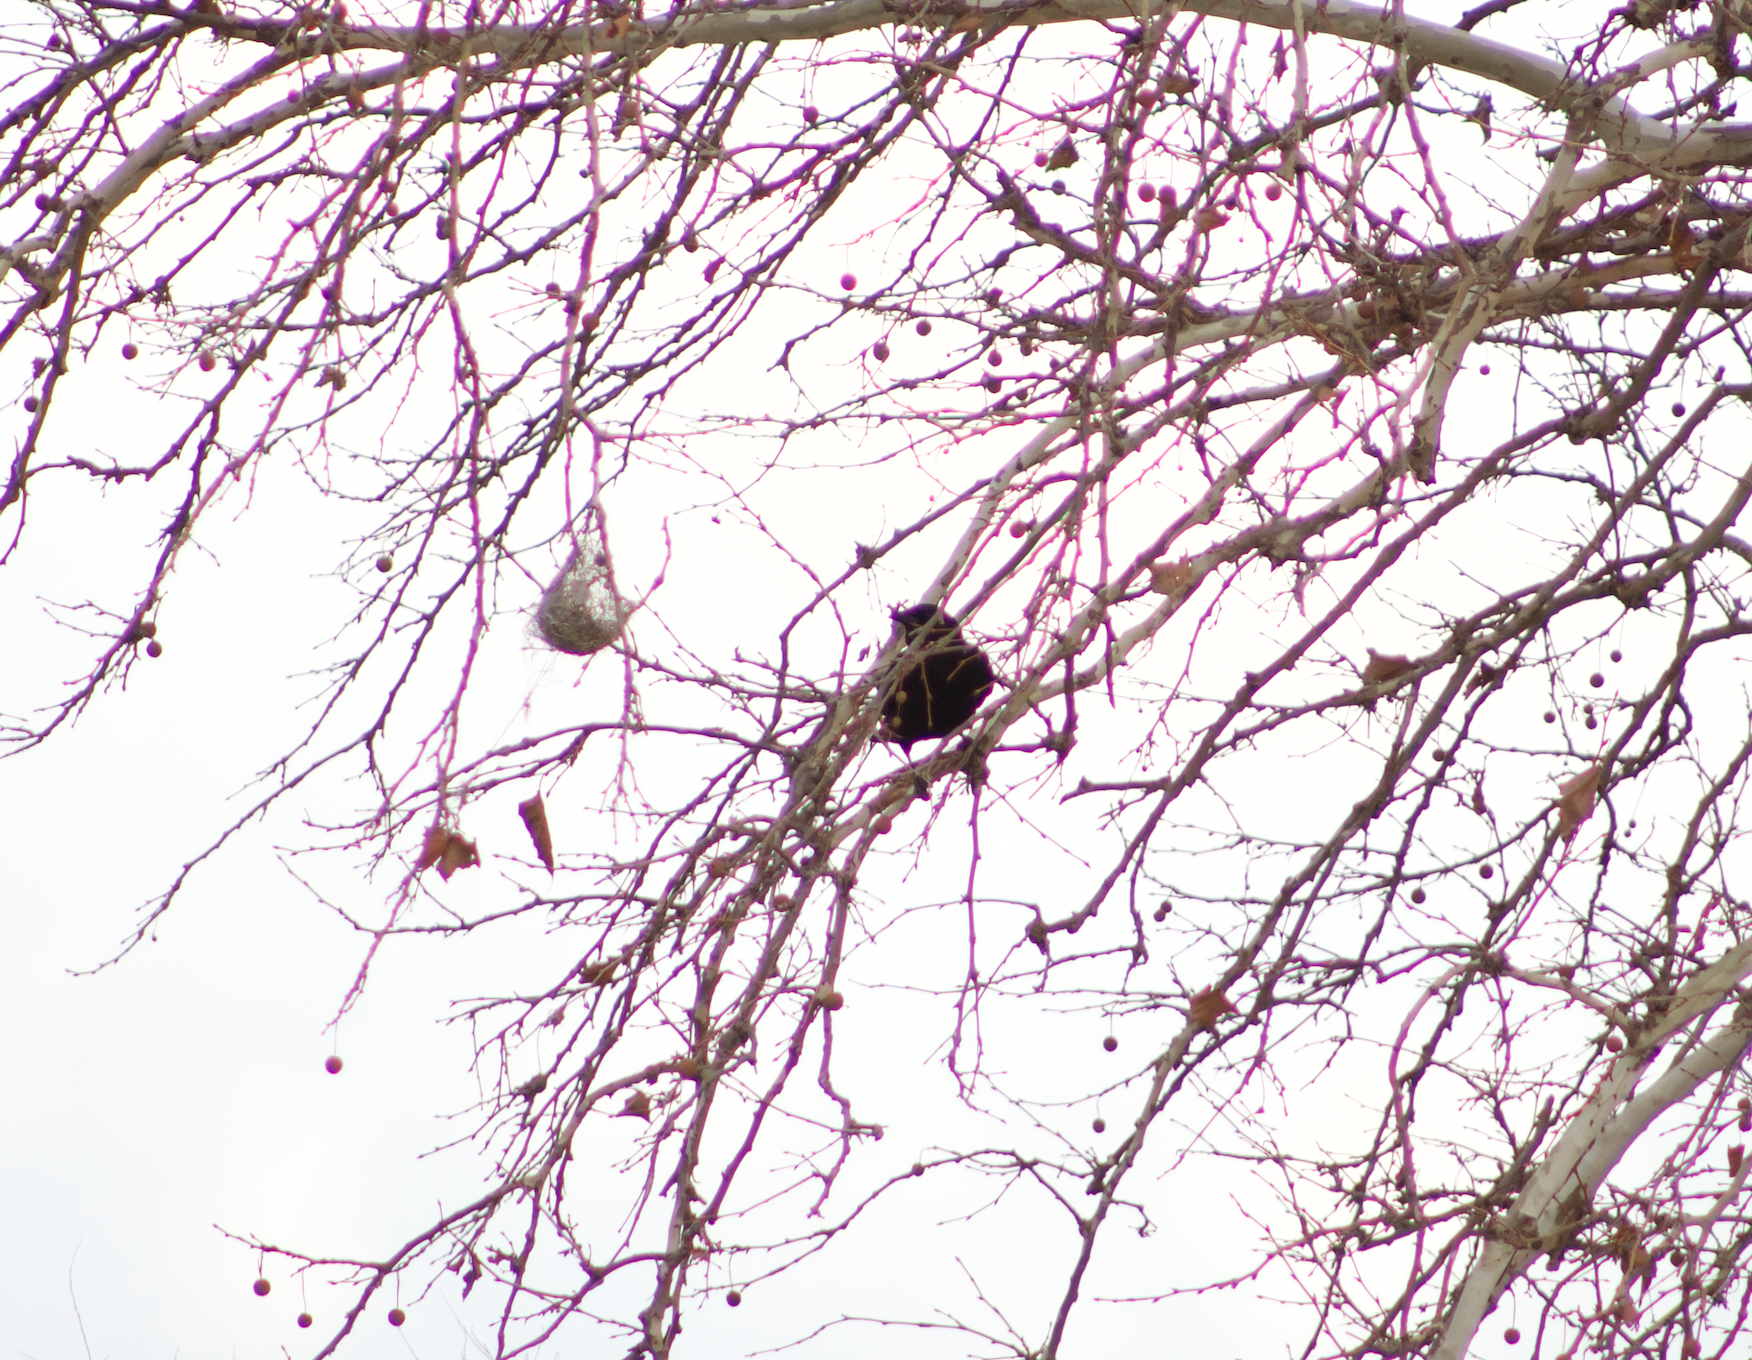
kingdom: Animalia
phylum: Chordata
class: Aves
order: Passeriformes
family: Corvidae
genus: Corvus
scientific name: Corvus brachyrhynchos
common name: American crow
